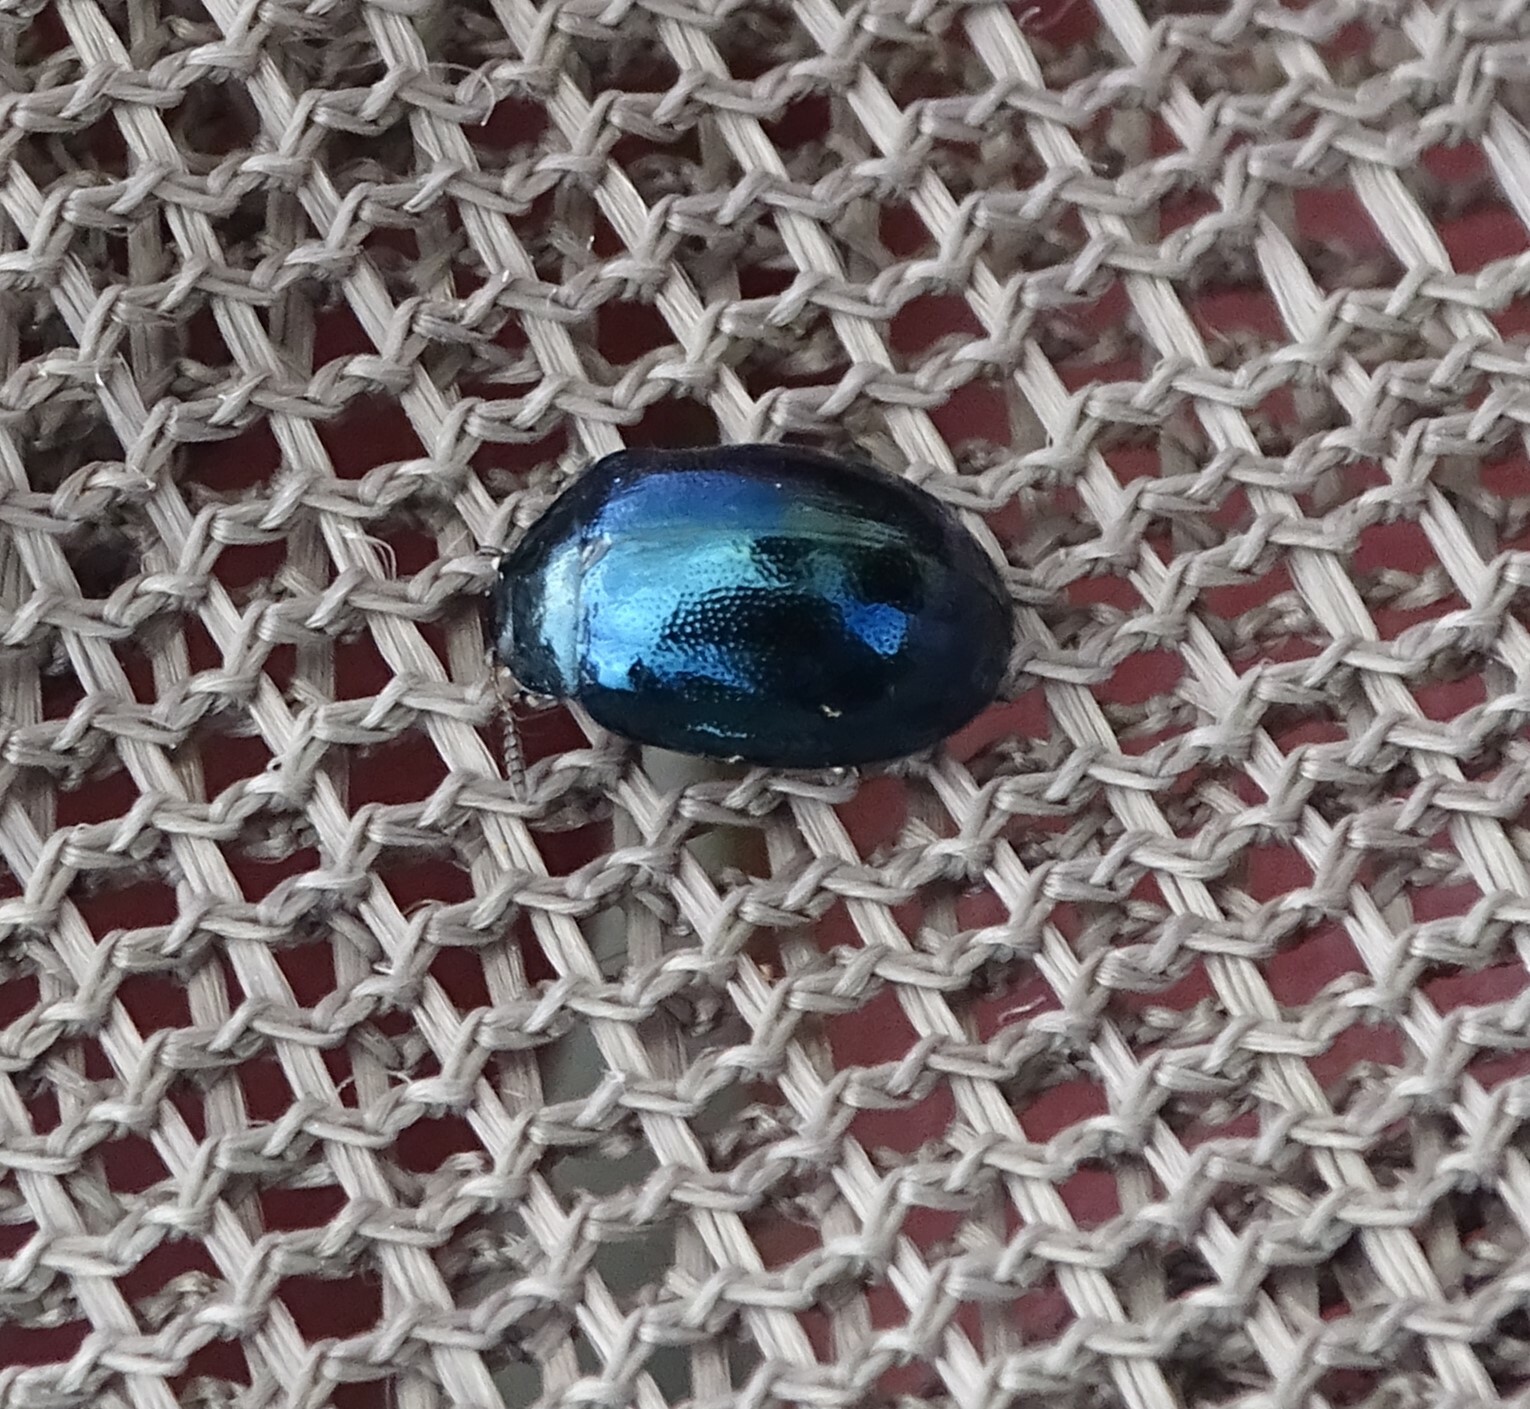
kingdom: Animalia
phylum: Arthropoda
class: Insecta
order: Coleoptera
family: Chrysomelidae
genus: Plagiodera
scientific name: Plagiodera versicolora
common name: Imported willow leaf beetle
